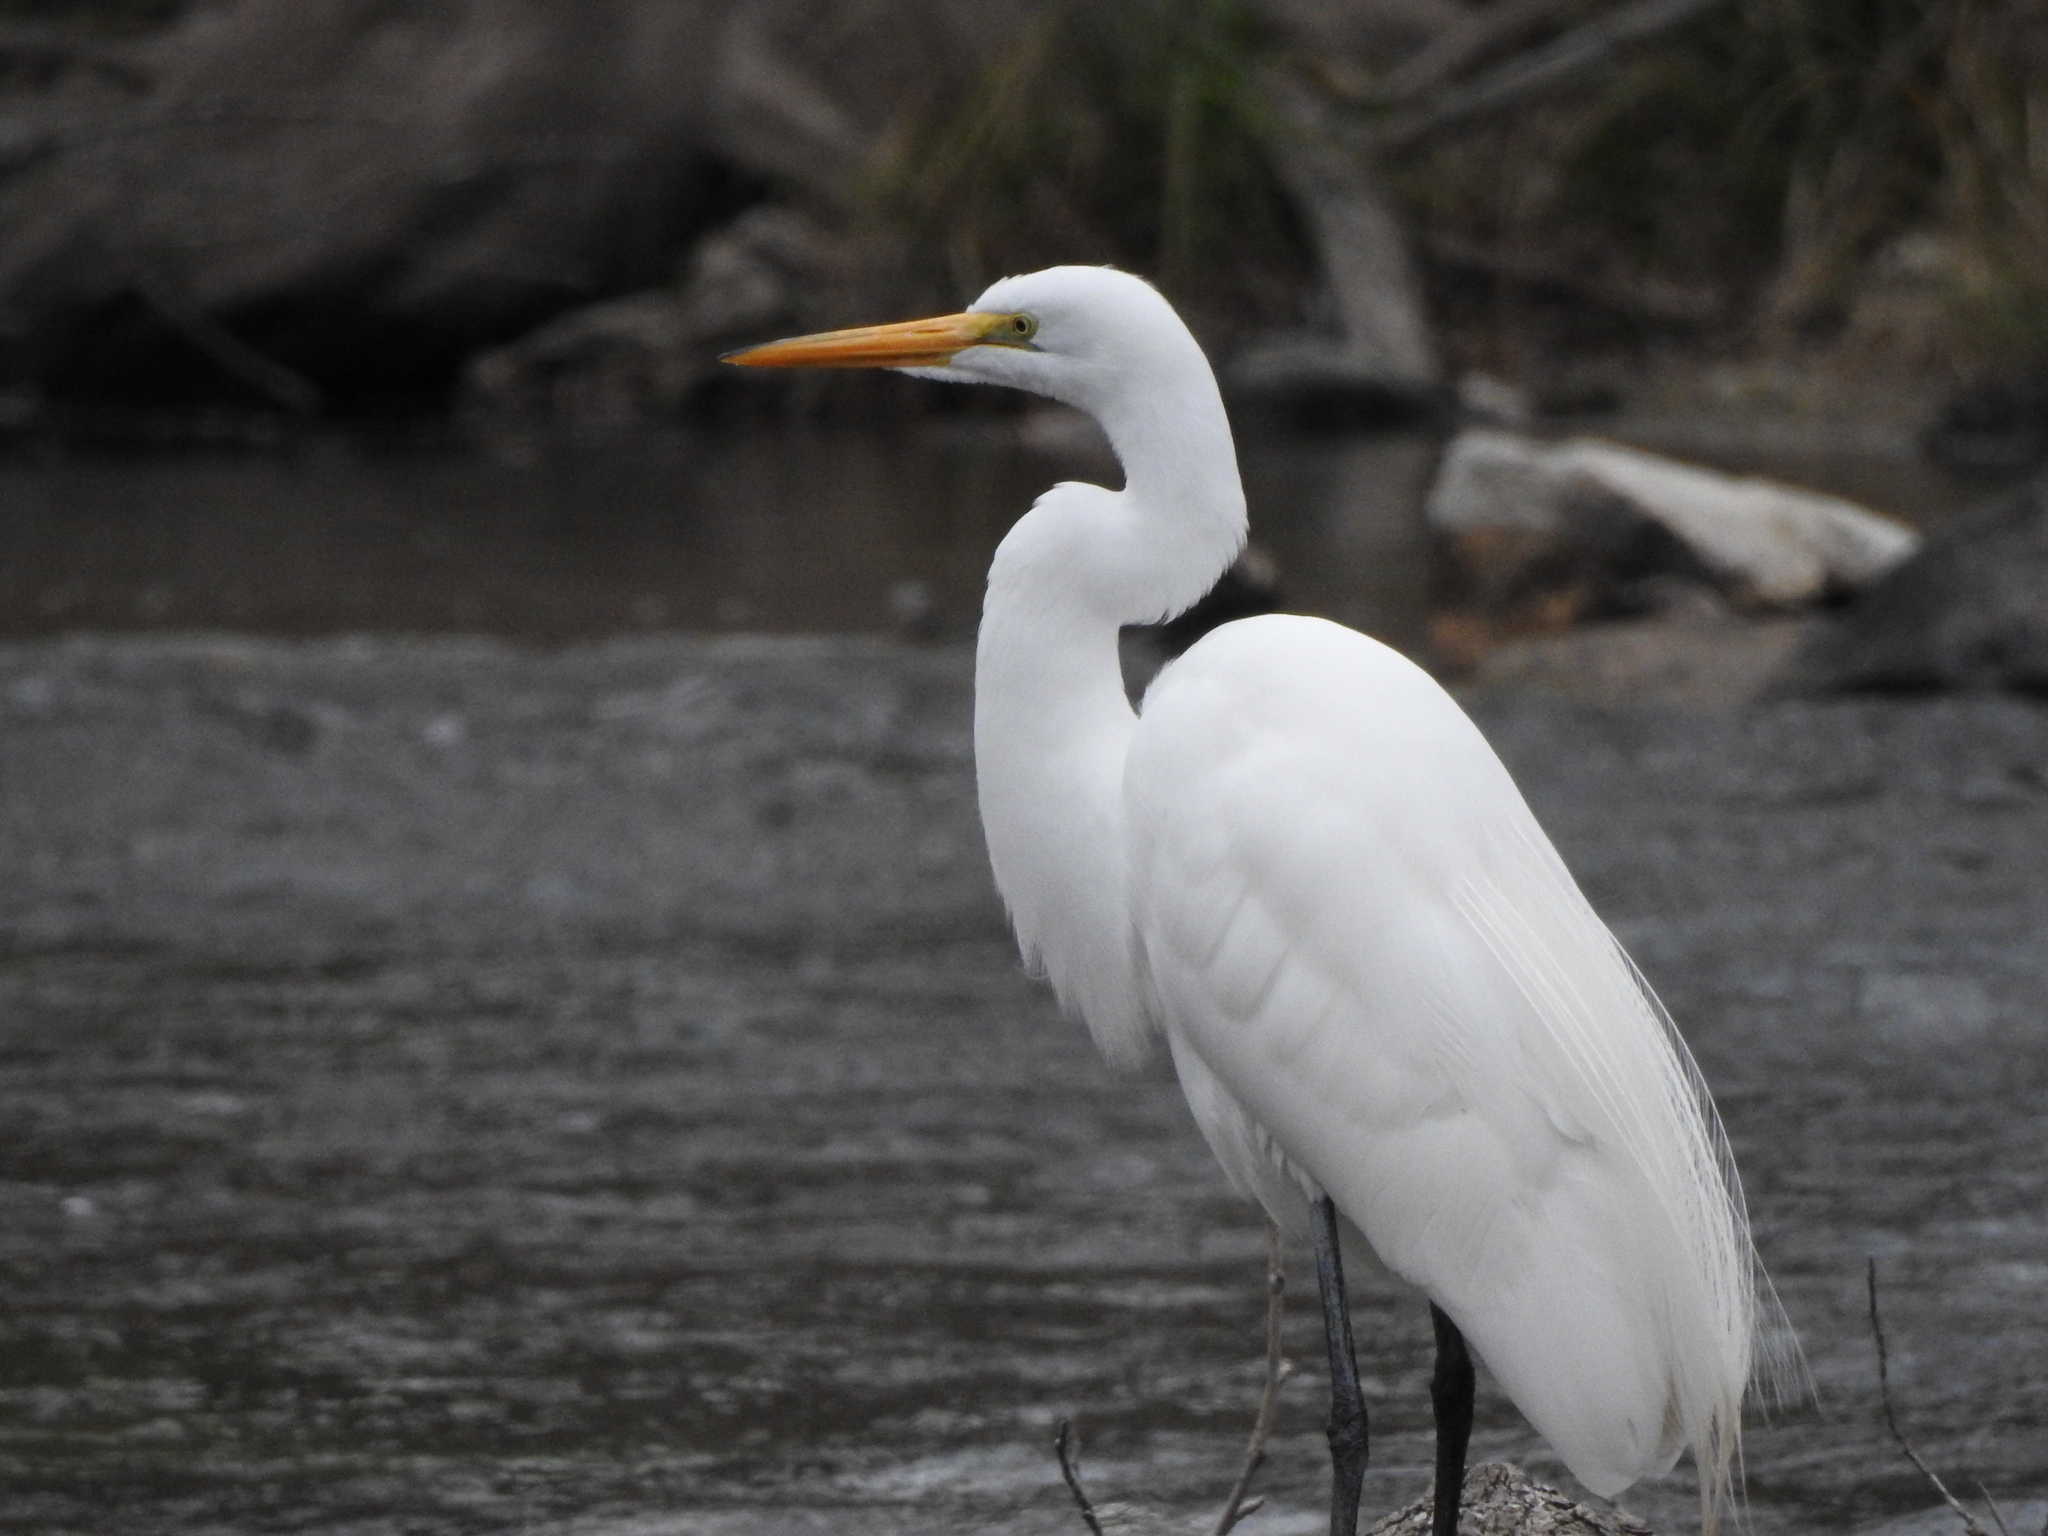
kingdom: Animalia
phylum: Chordata
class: Aves
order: Pelecaniformes
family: Ardeidae
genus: Ardea
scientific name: Ardea alba
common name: Great egret
